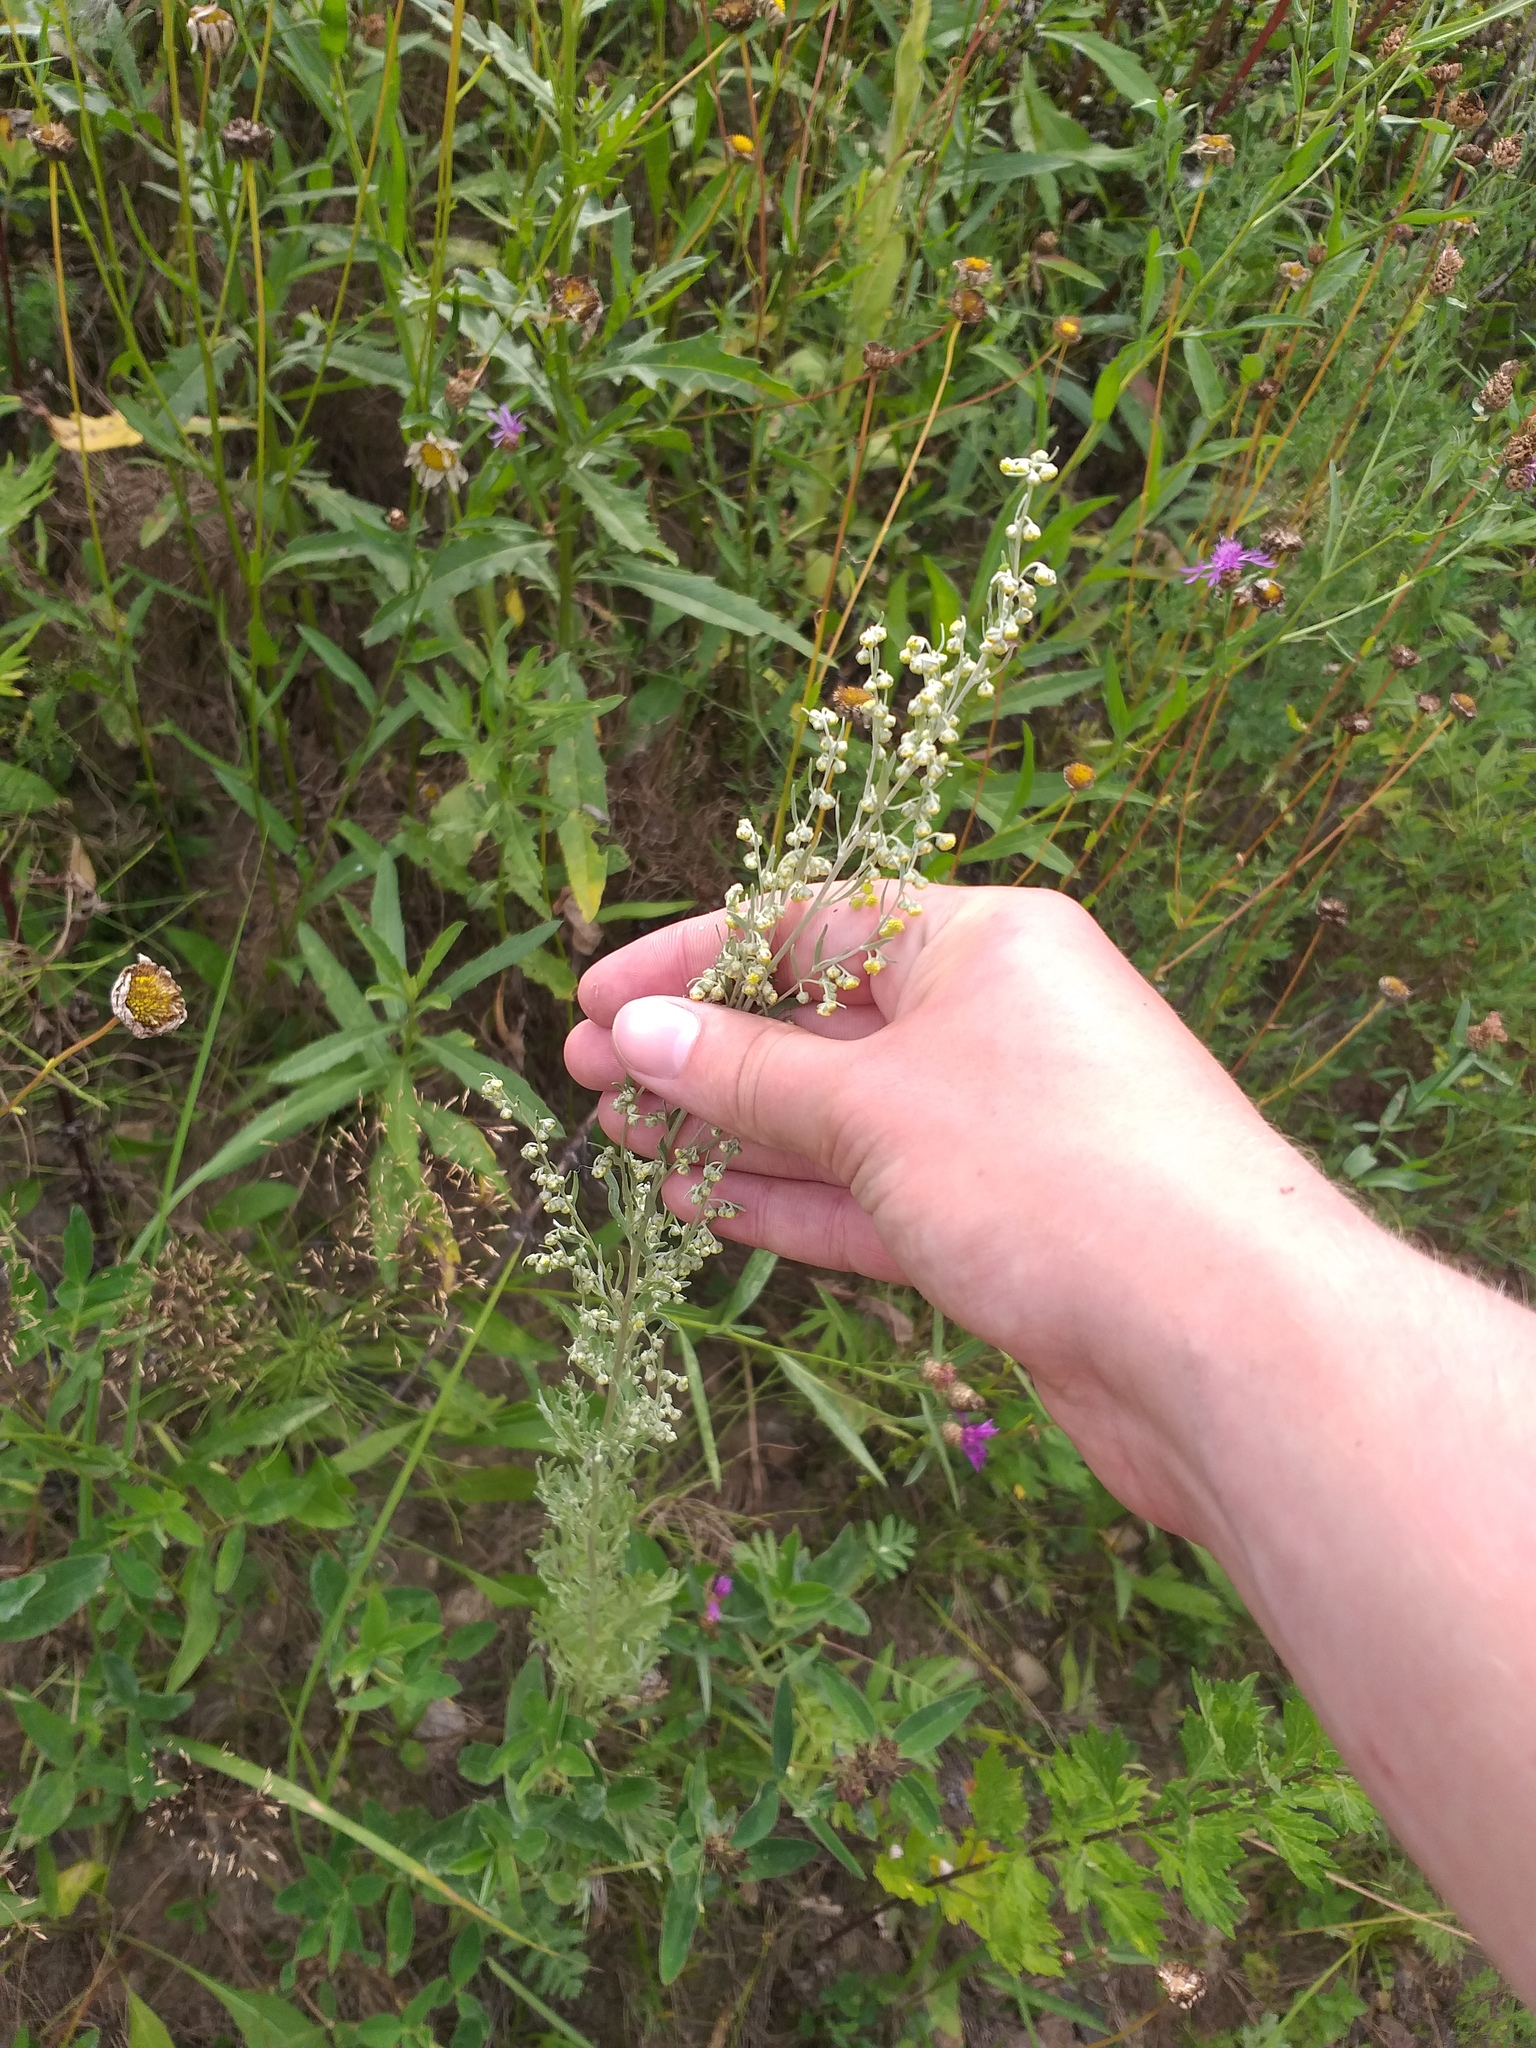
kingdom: Plantae
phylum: Tracheophyta
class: Magnoliopsida
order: Asterales
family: Asteraceae
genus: Artemisia
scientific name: Artemisia absinthium
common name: Wormwood
